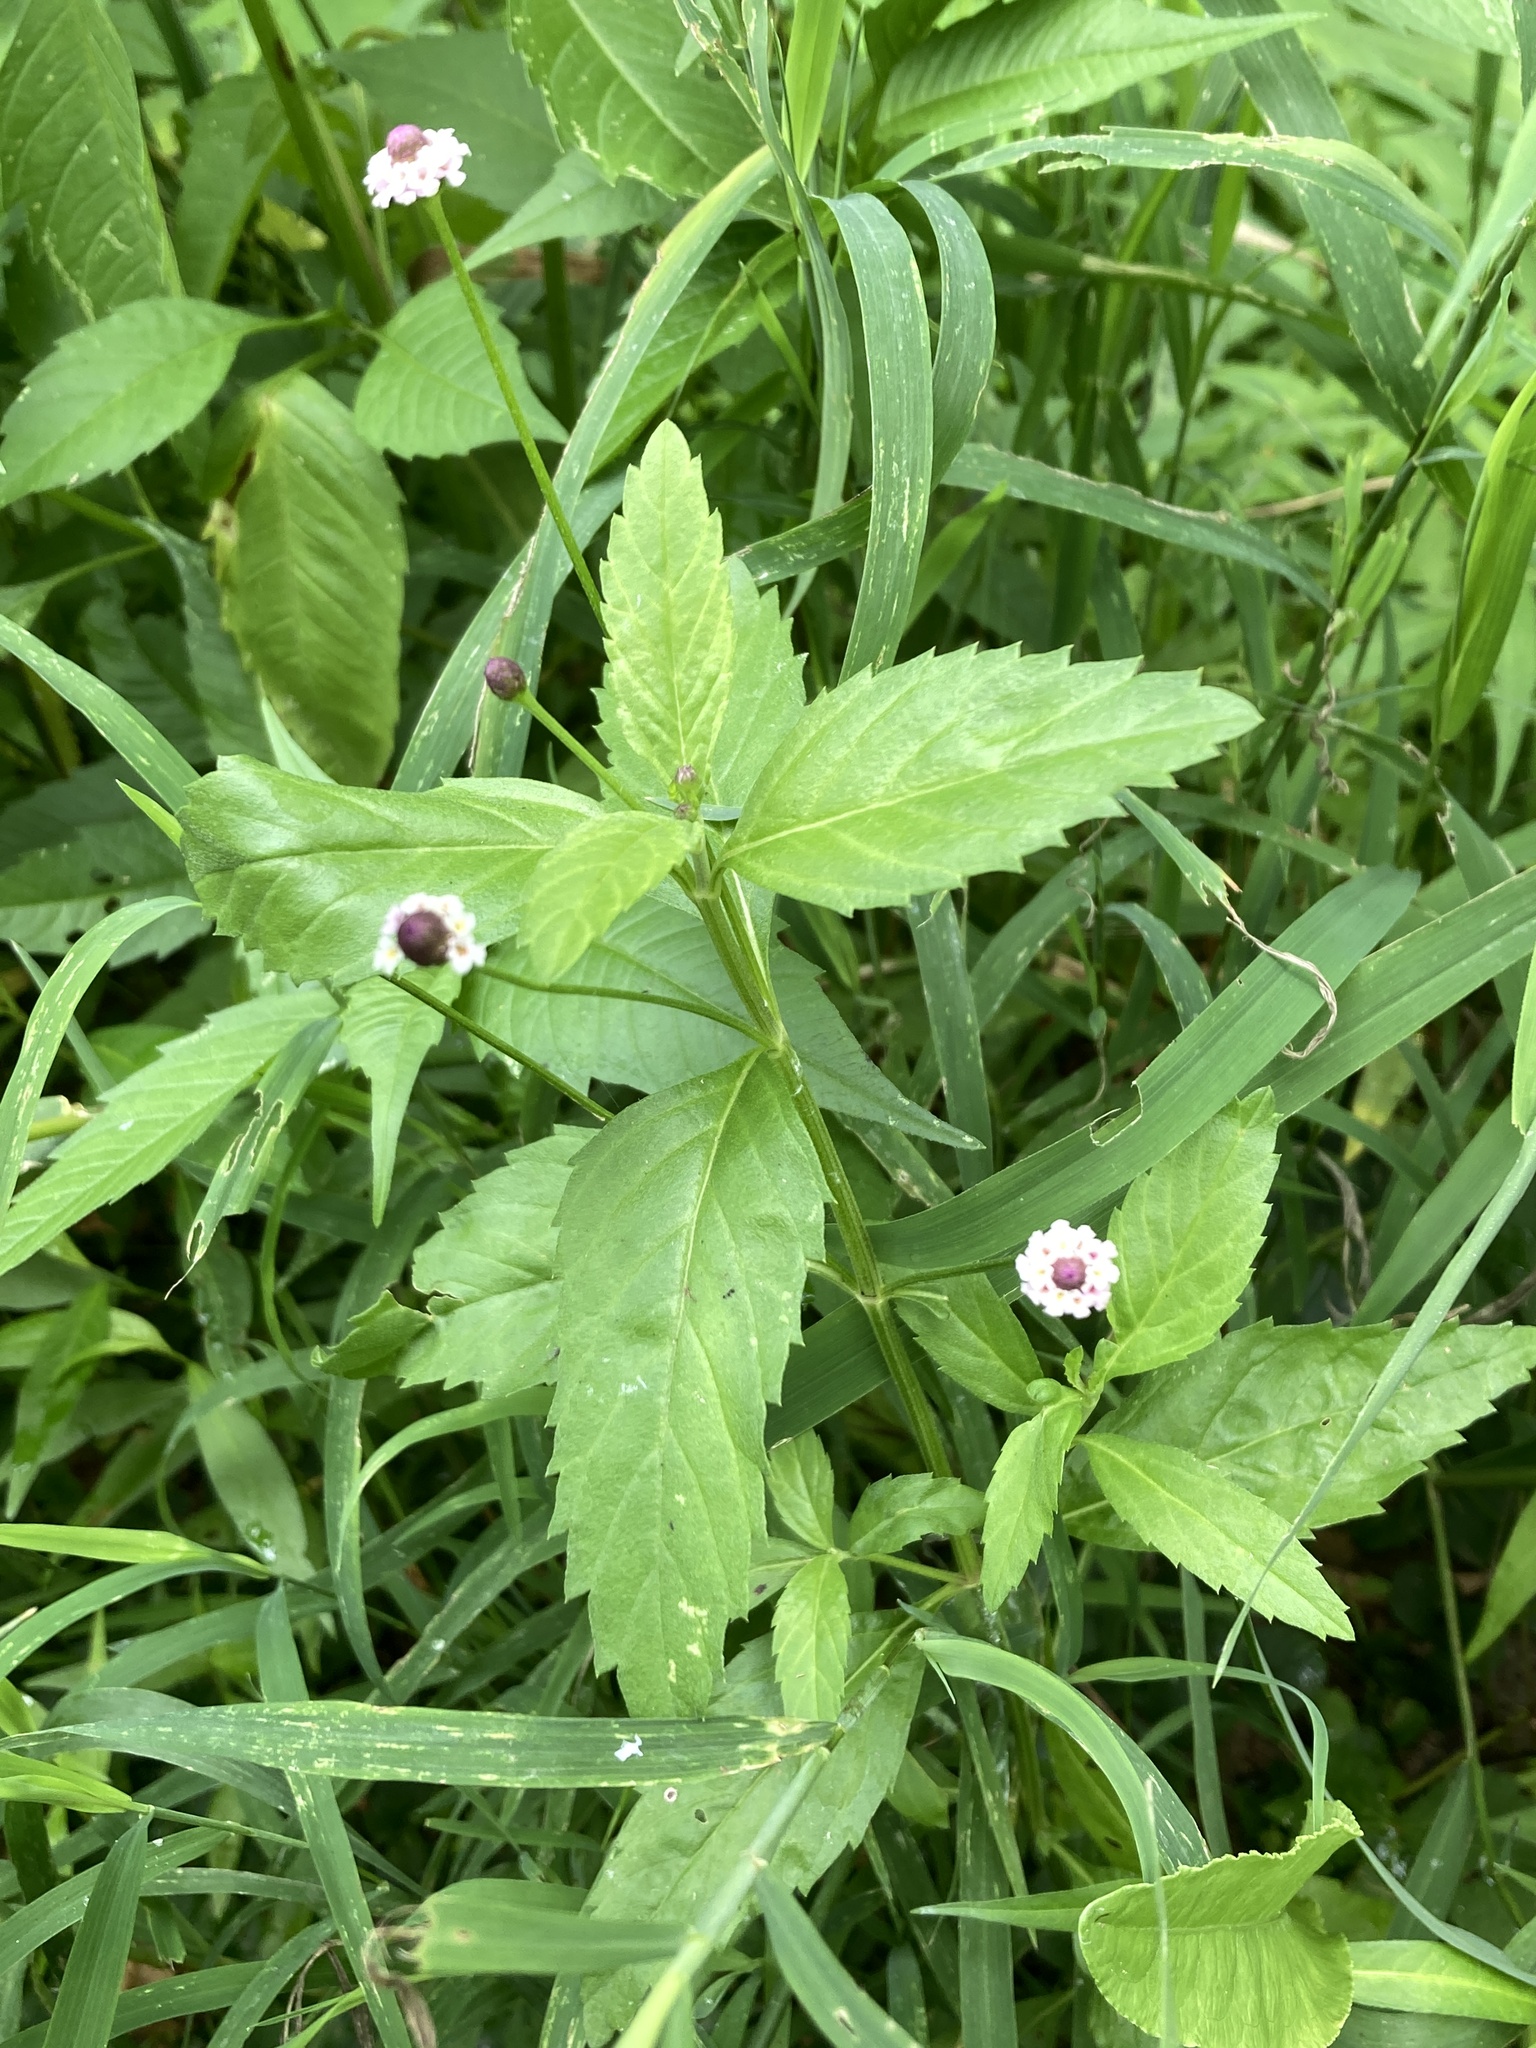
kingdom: Plantae
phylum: Tracheophyta
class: Magnoliopsida
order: Lamiales
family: Verbenaceae
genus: Phyla
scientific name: Phyla lanceolata
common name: Northern fogfruit
